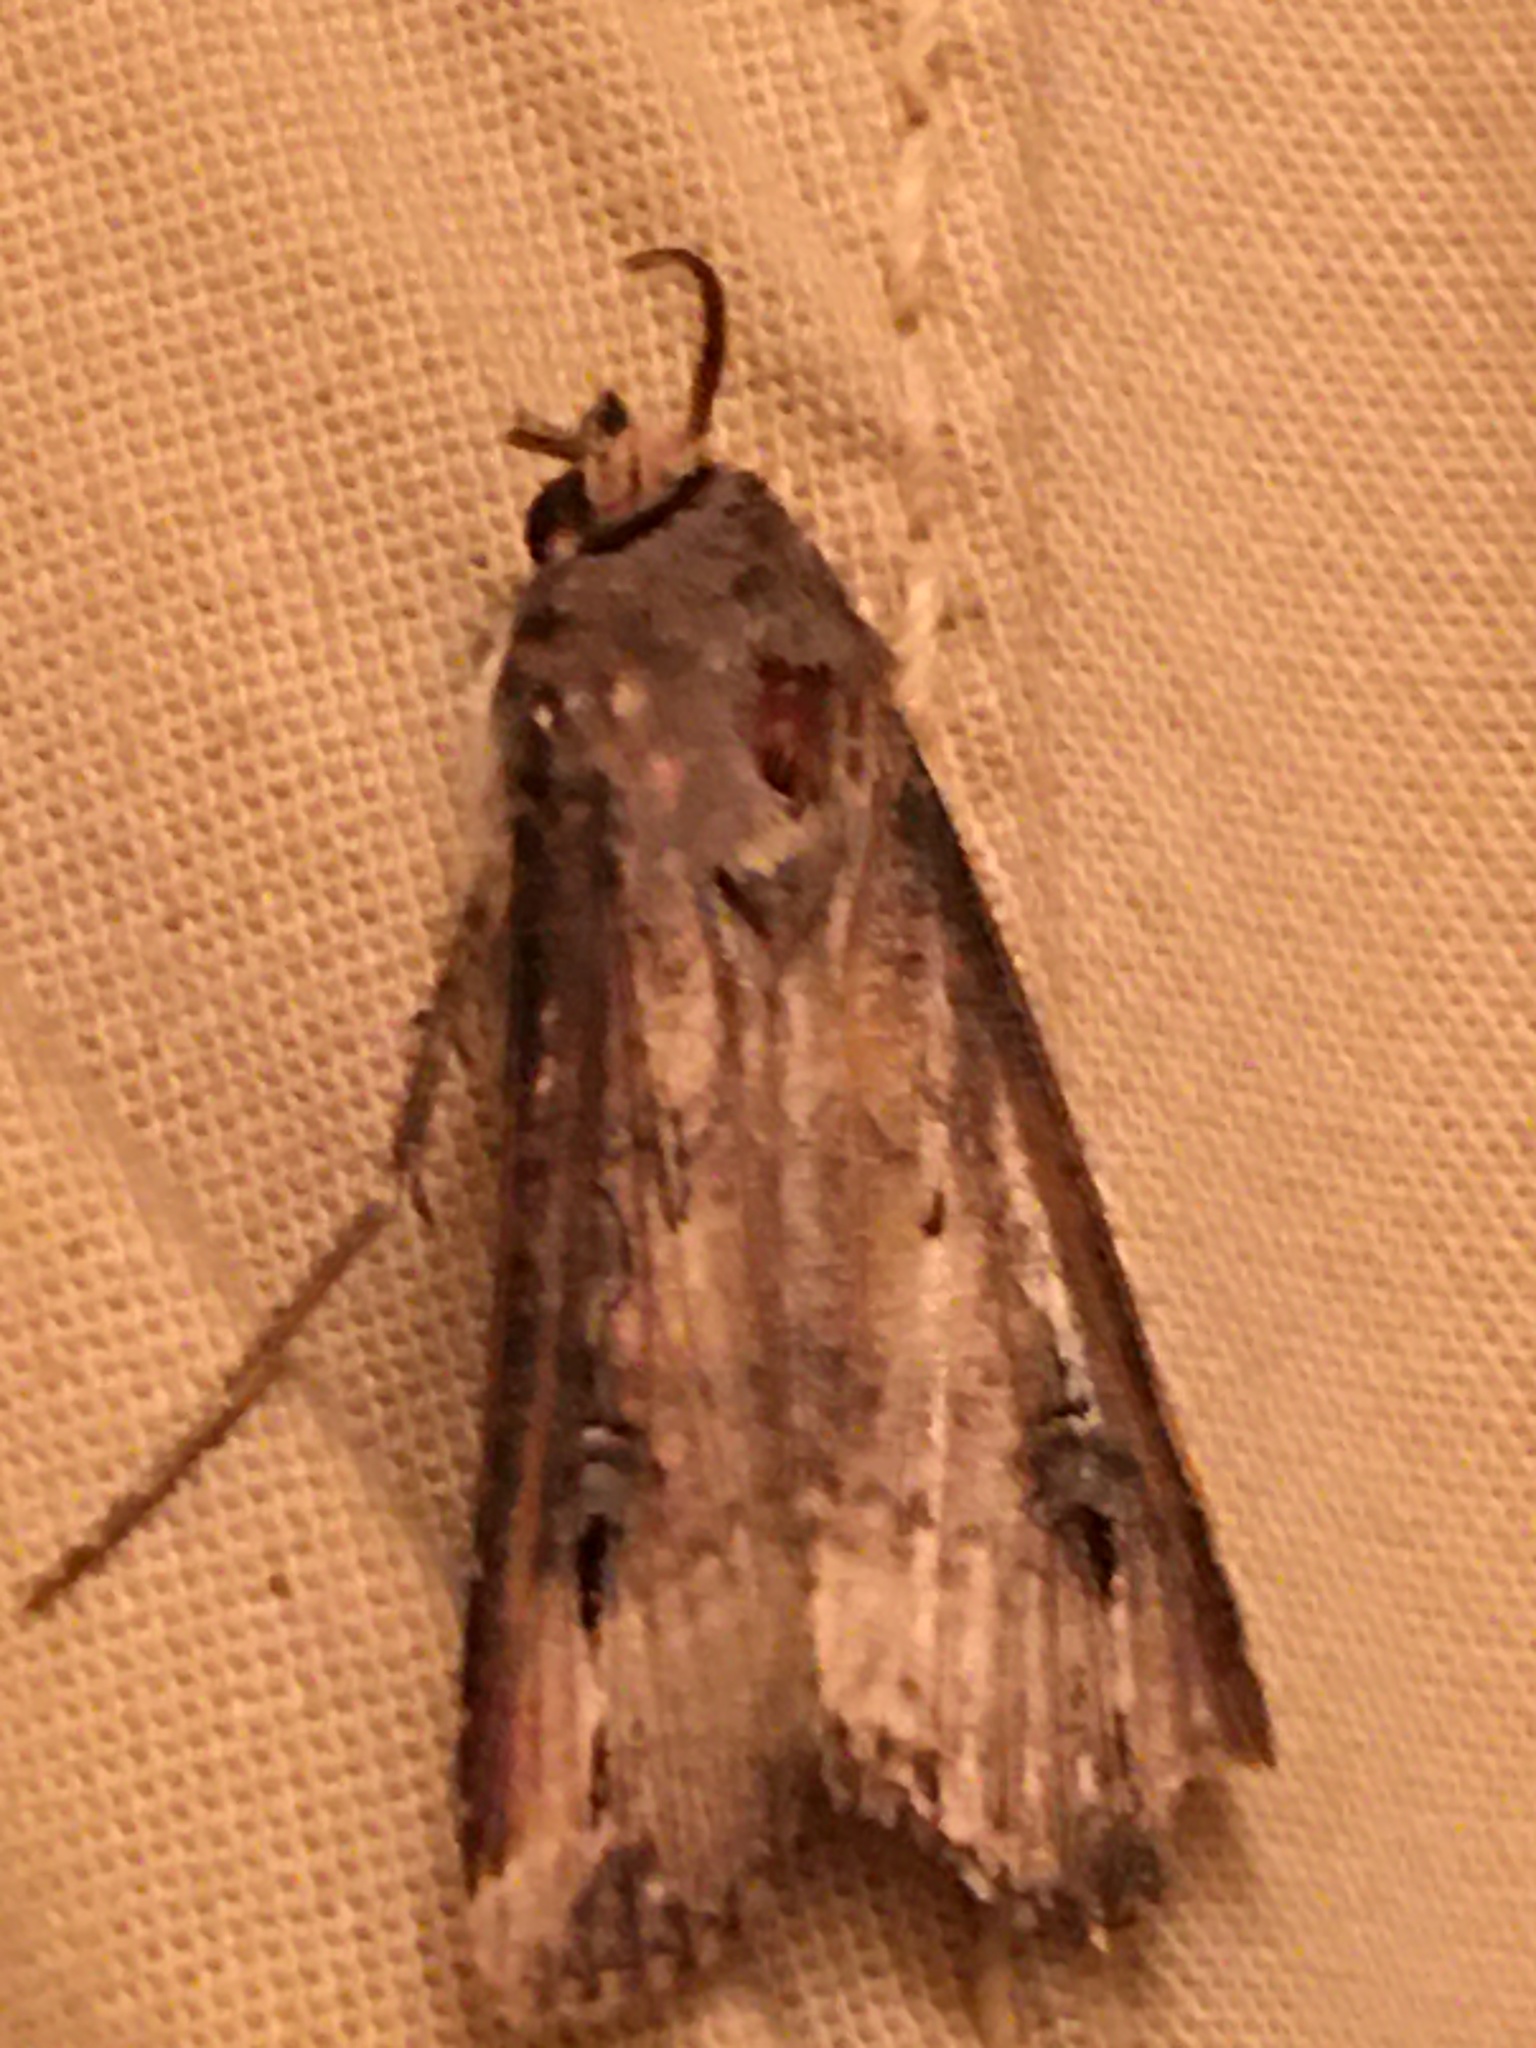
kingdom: Animalia
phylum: Arthropoda
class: Insecta
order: Lepidoptera
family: Noctuidae
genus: Agrotis
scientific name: Agrotis ipsilon
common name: Dark sword-grass
